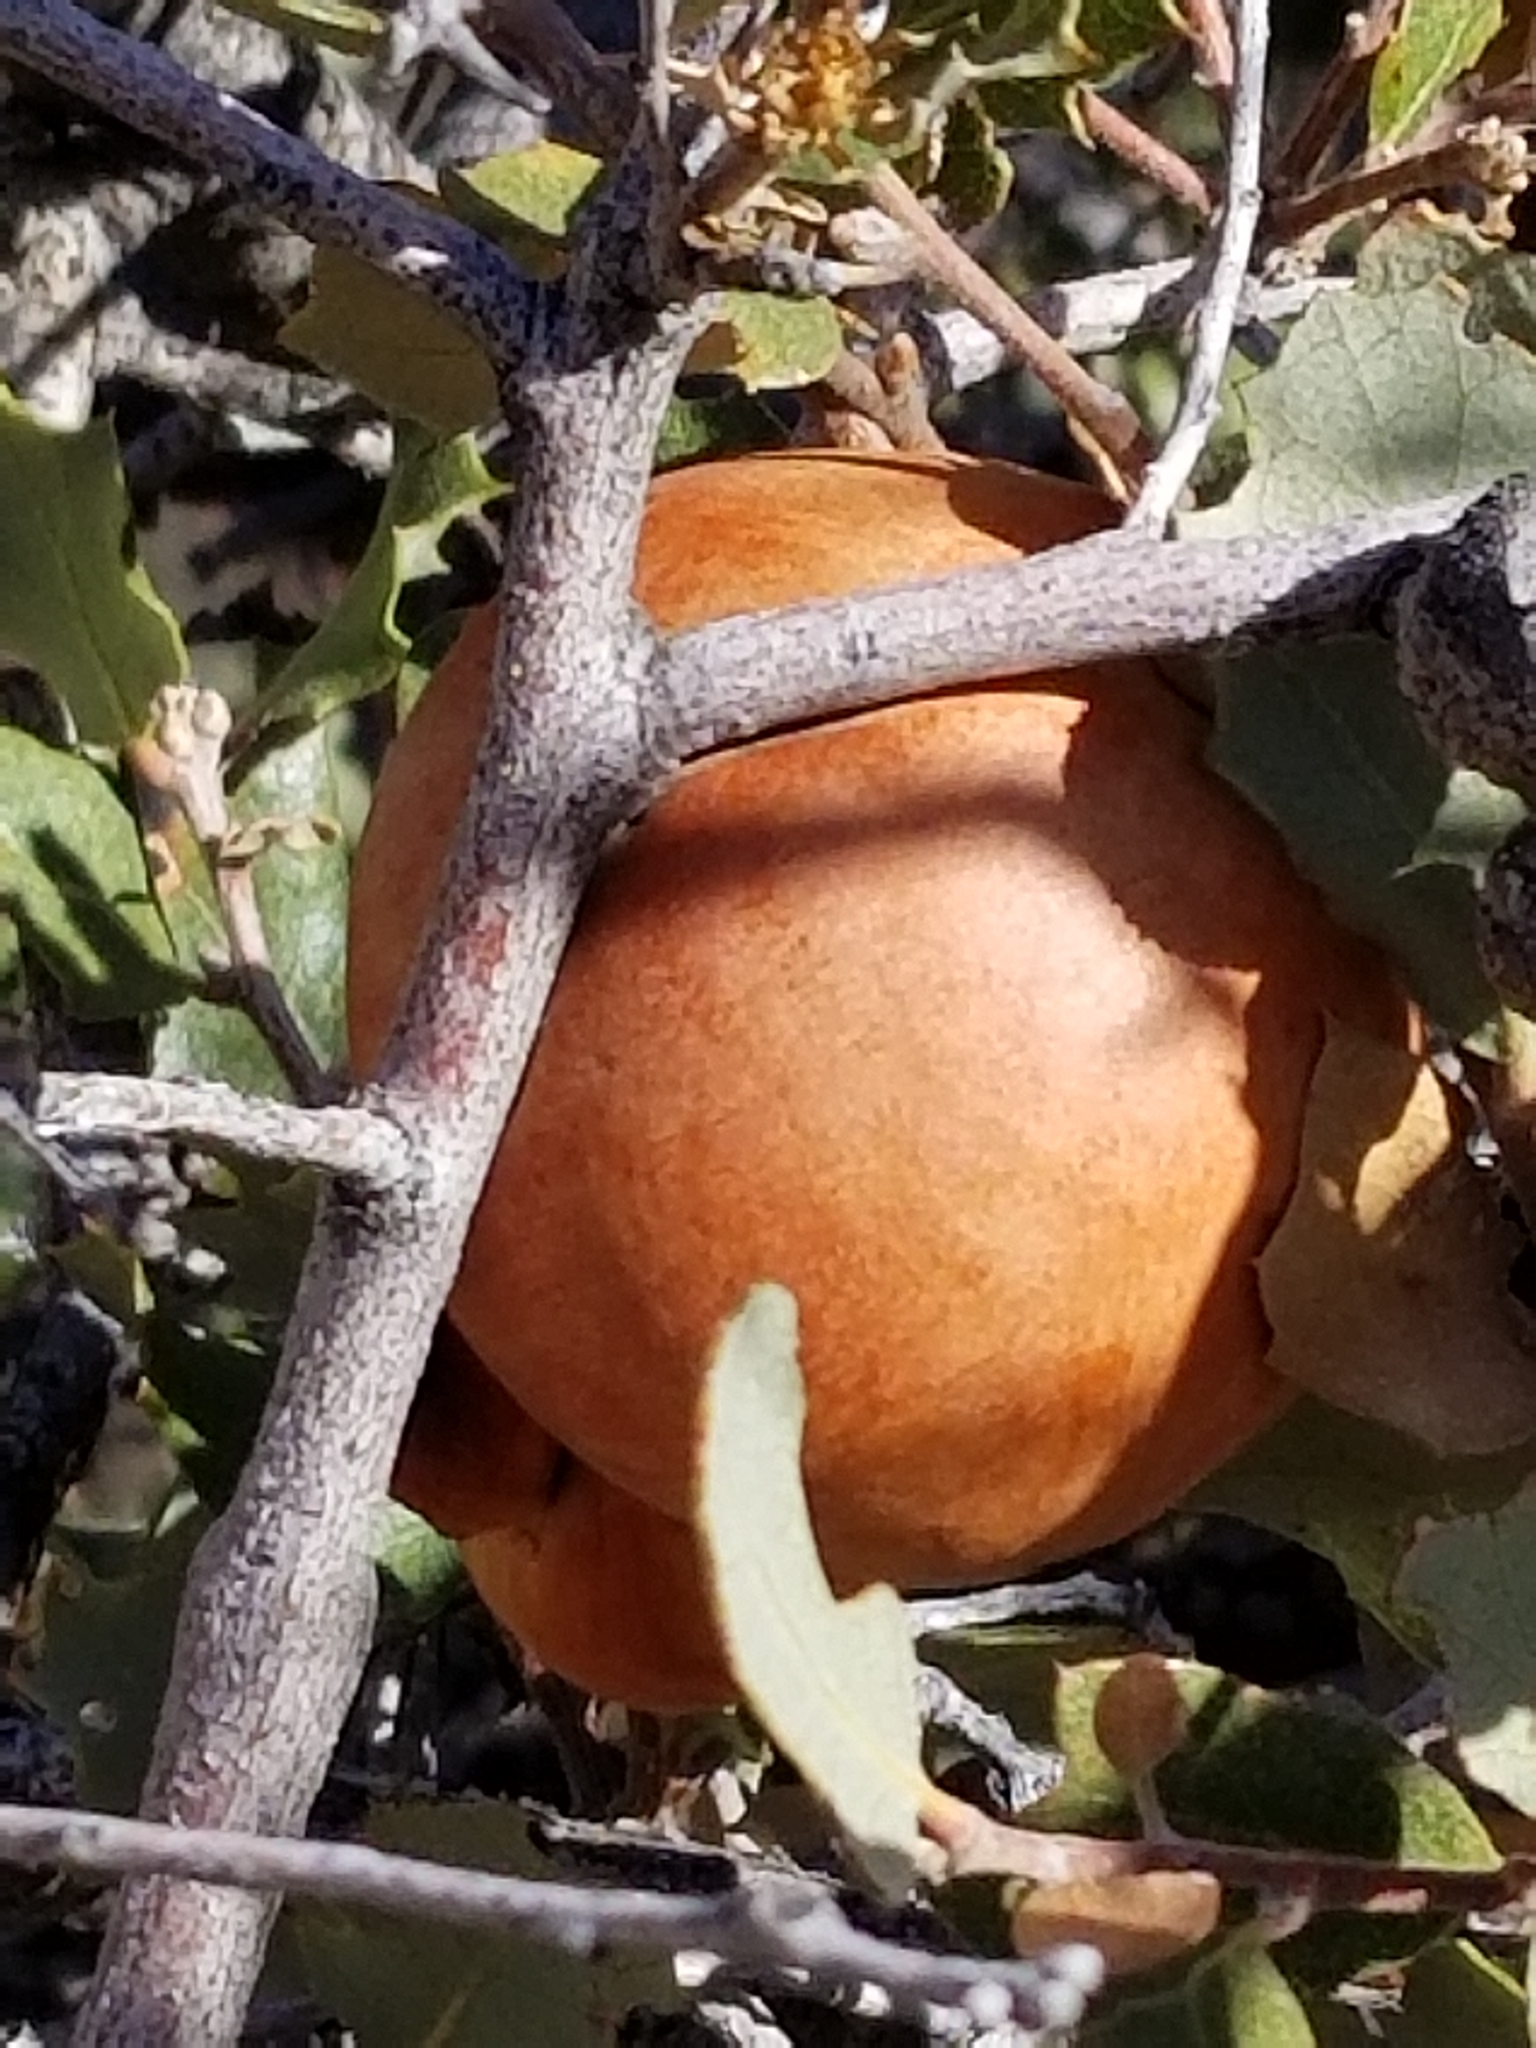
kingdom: Animalia
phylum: Arthropoda
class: Insecta
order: Hymenoptera
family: Cynipidae
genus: Andricus
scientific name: Andricus quercuscalifornicus
